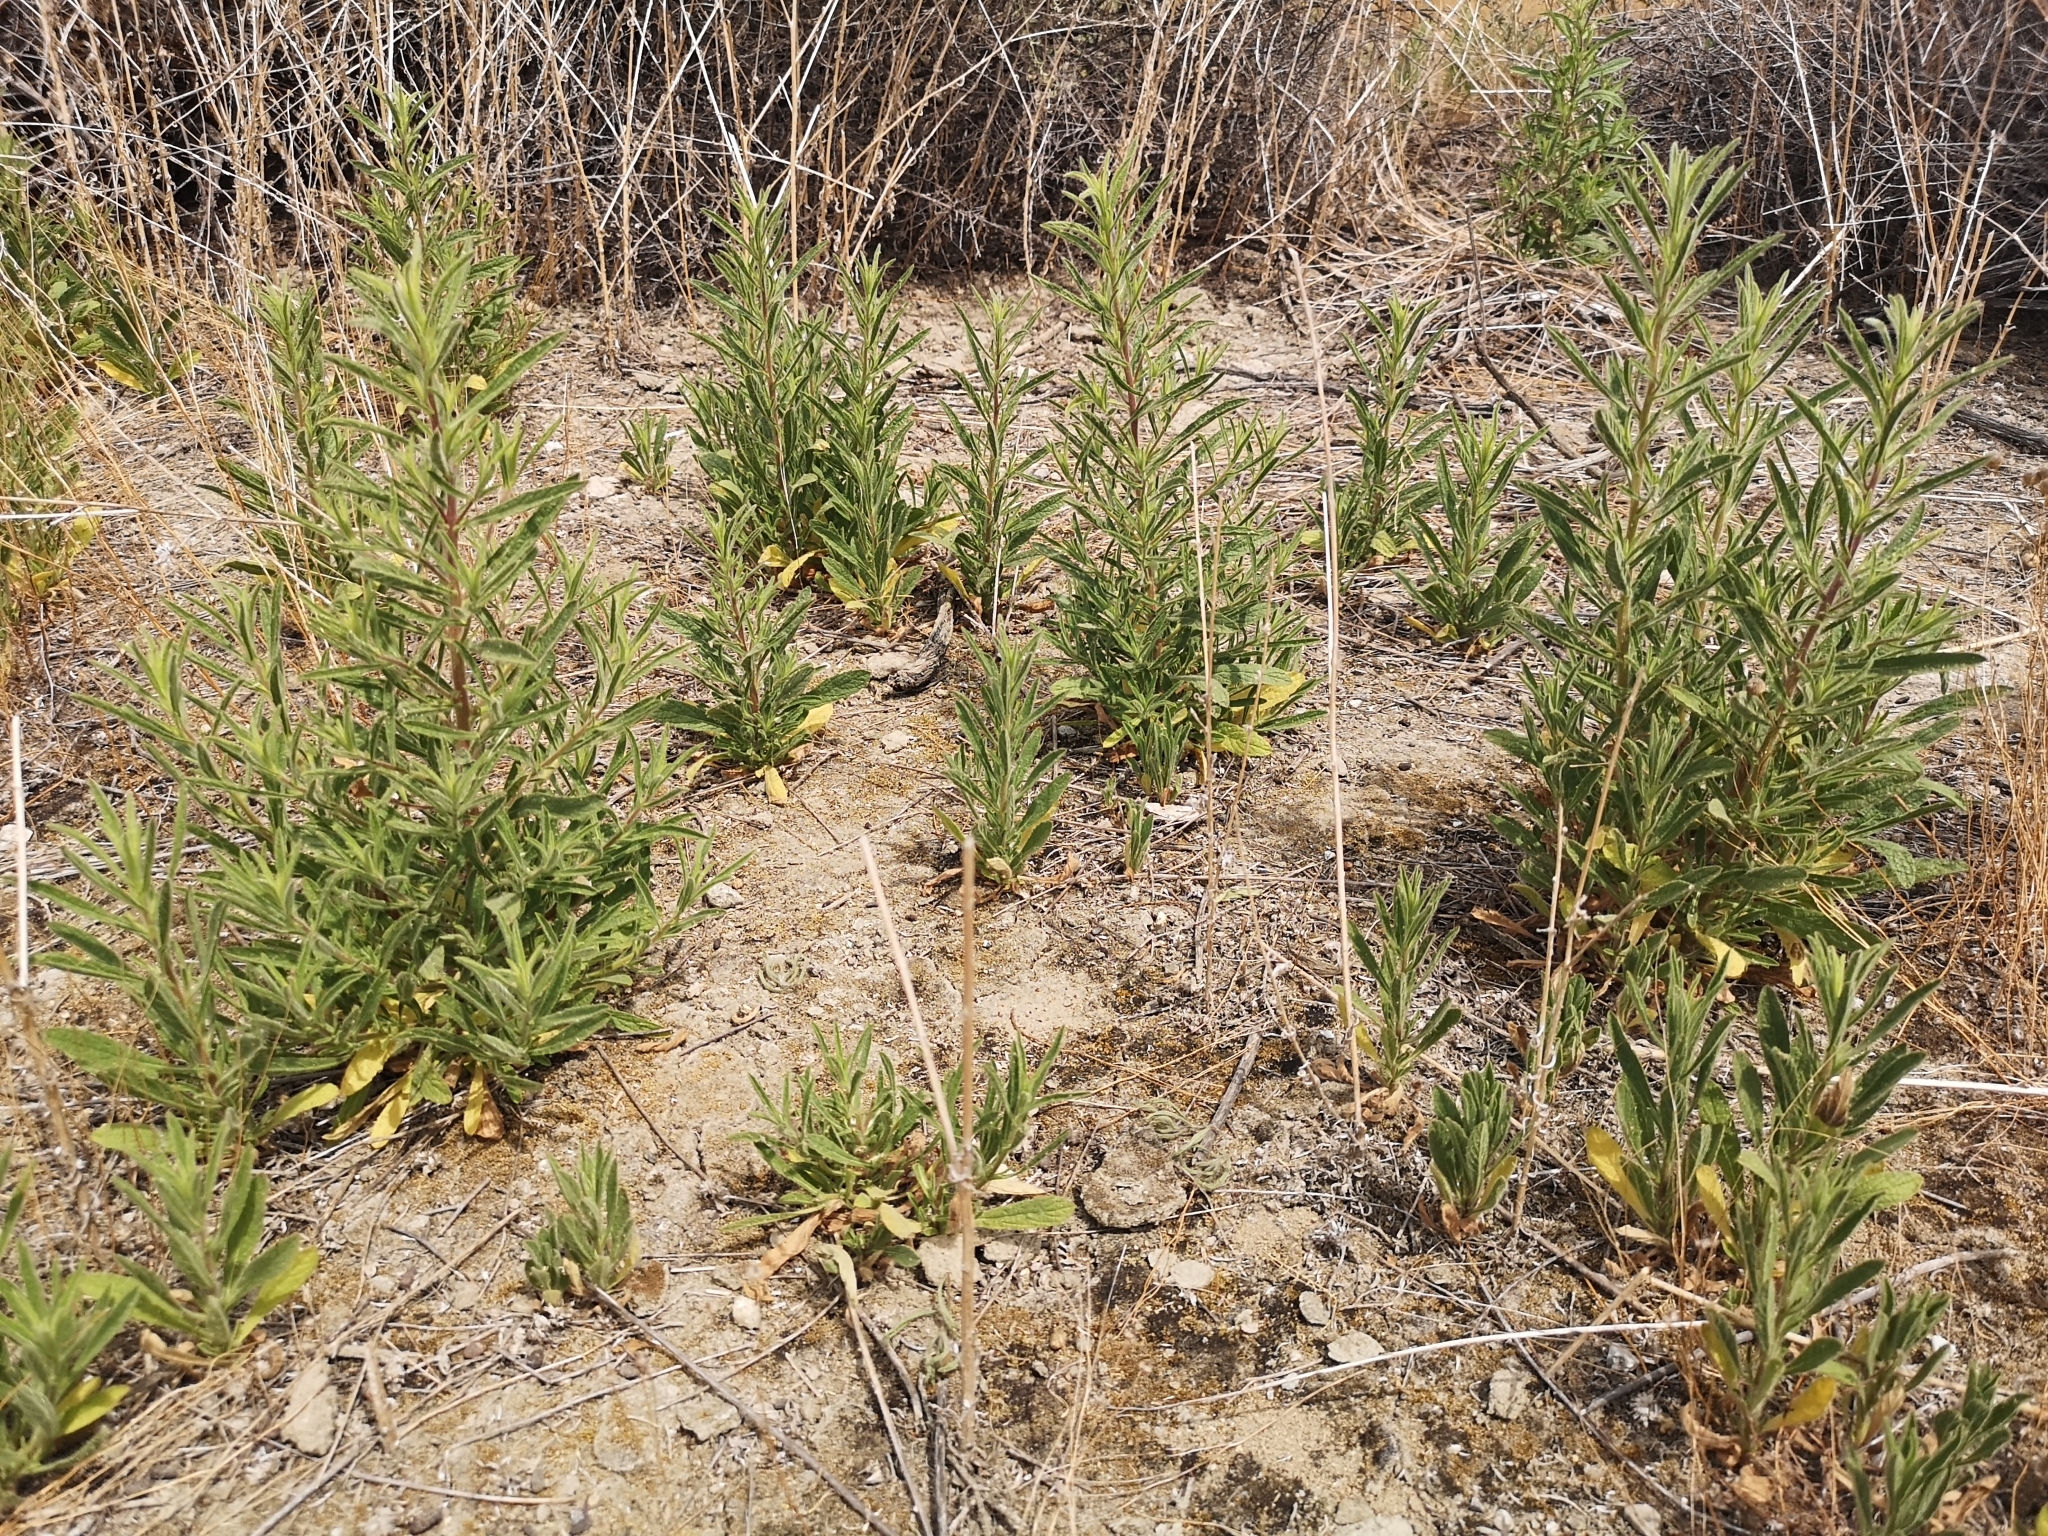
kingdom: Plantae
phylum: Tracheophyta
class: Magnoliopsida
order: Asterales
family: Asteraceae
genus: Dittrichia
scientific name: Dittrichia graveolens
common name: Stinking fleabane
